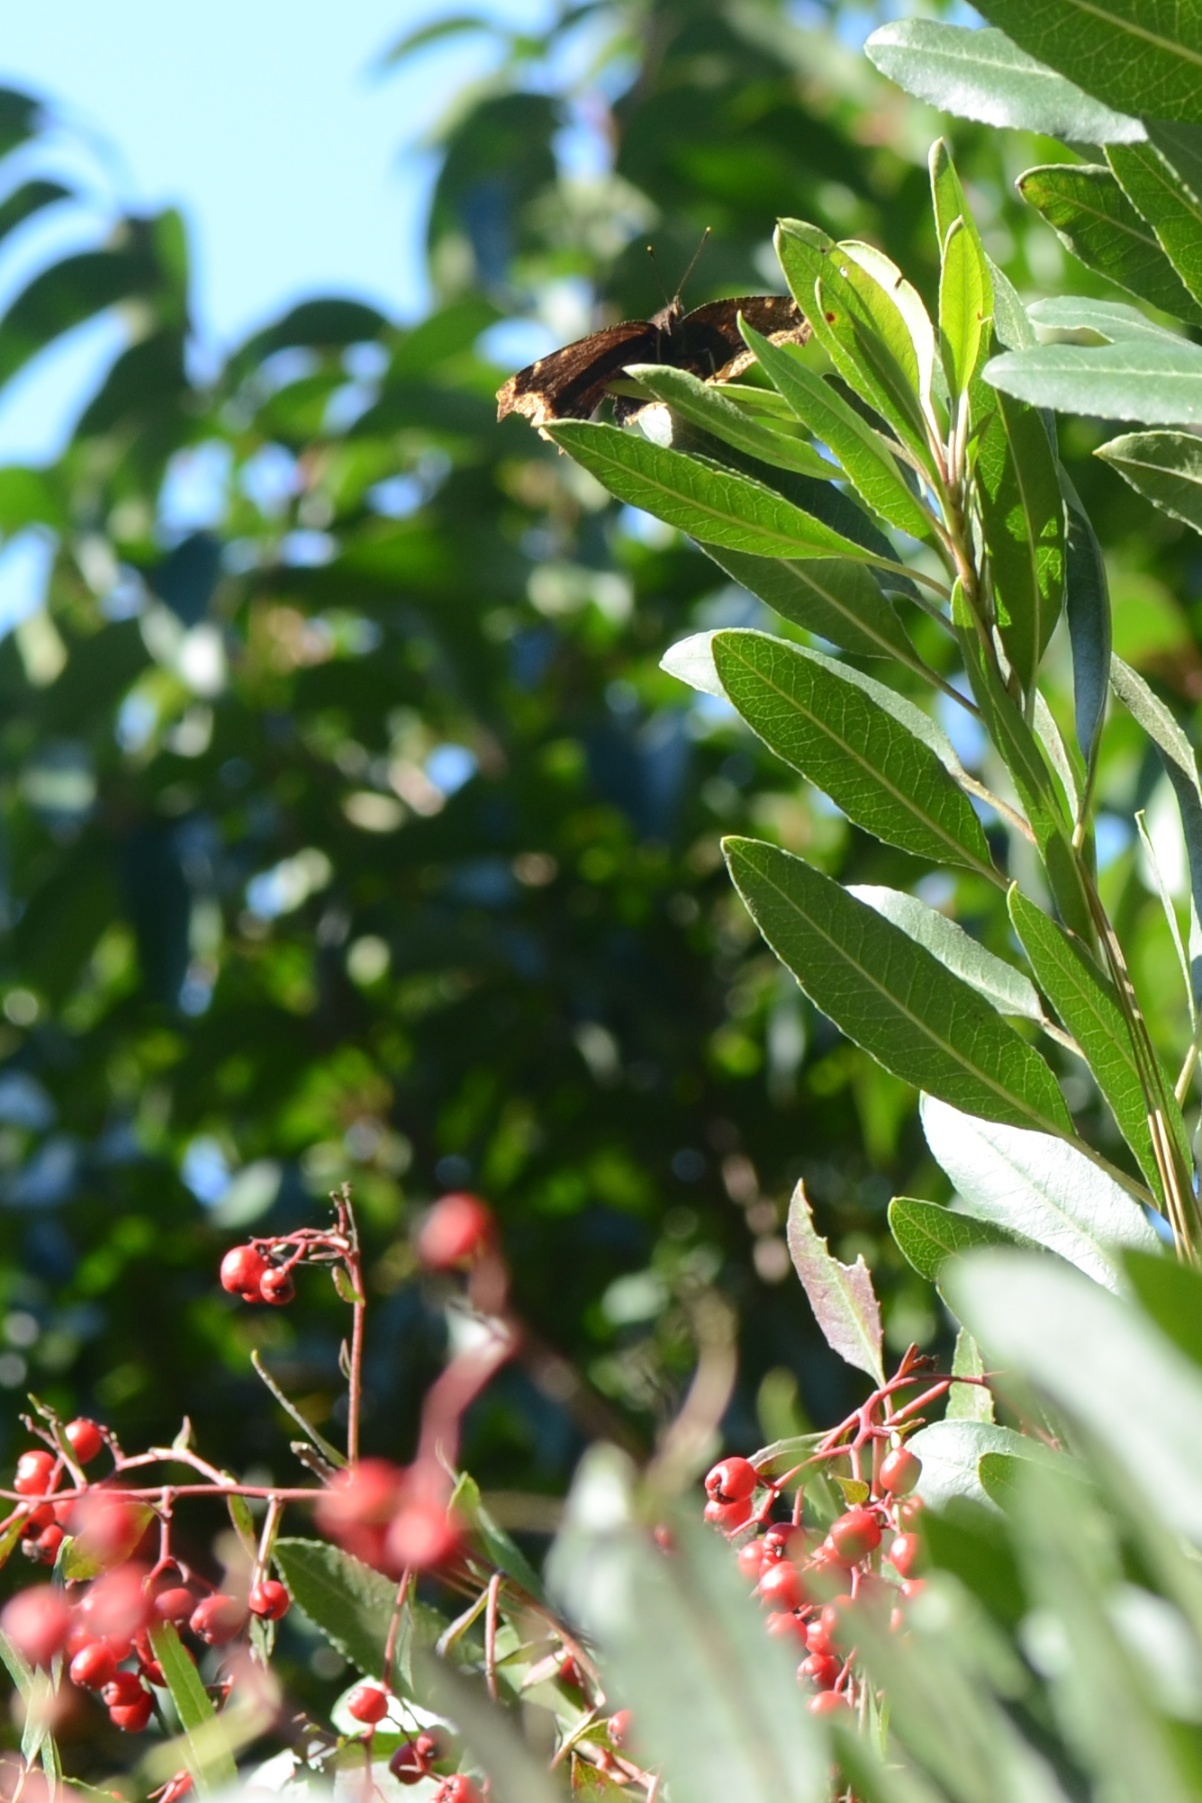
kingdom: Animalia
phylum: Arthropoda
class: Insecta
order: Lepidoptera
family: Nymphalidae
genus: Nymphalis
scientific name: Nymphalis antiopa
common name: Camberwell beauty
